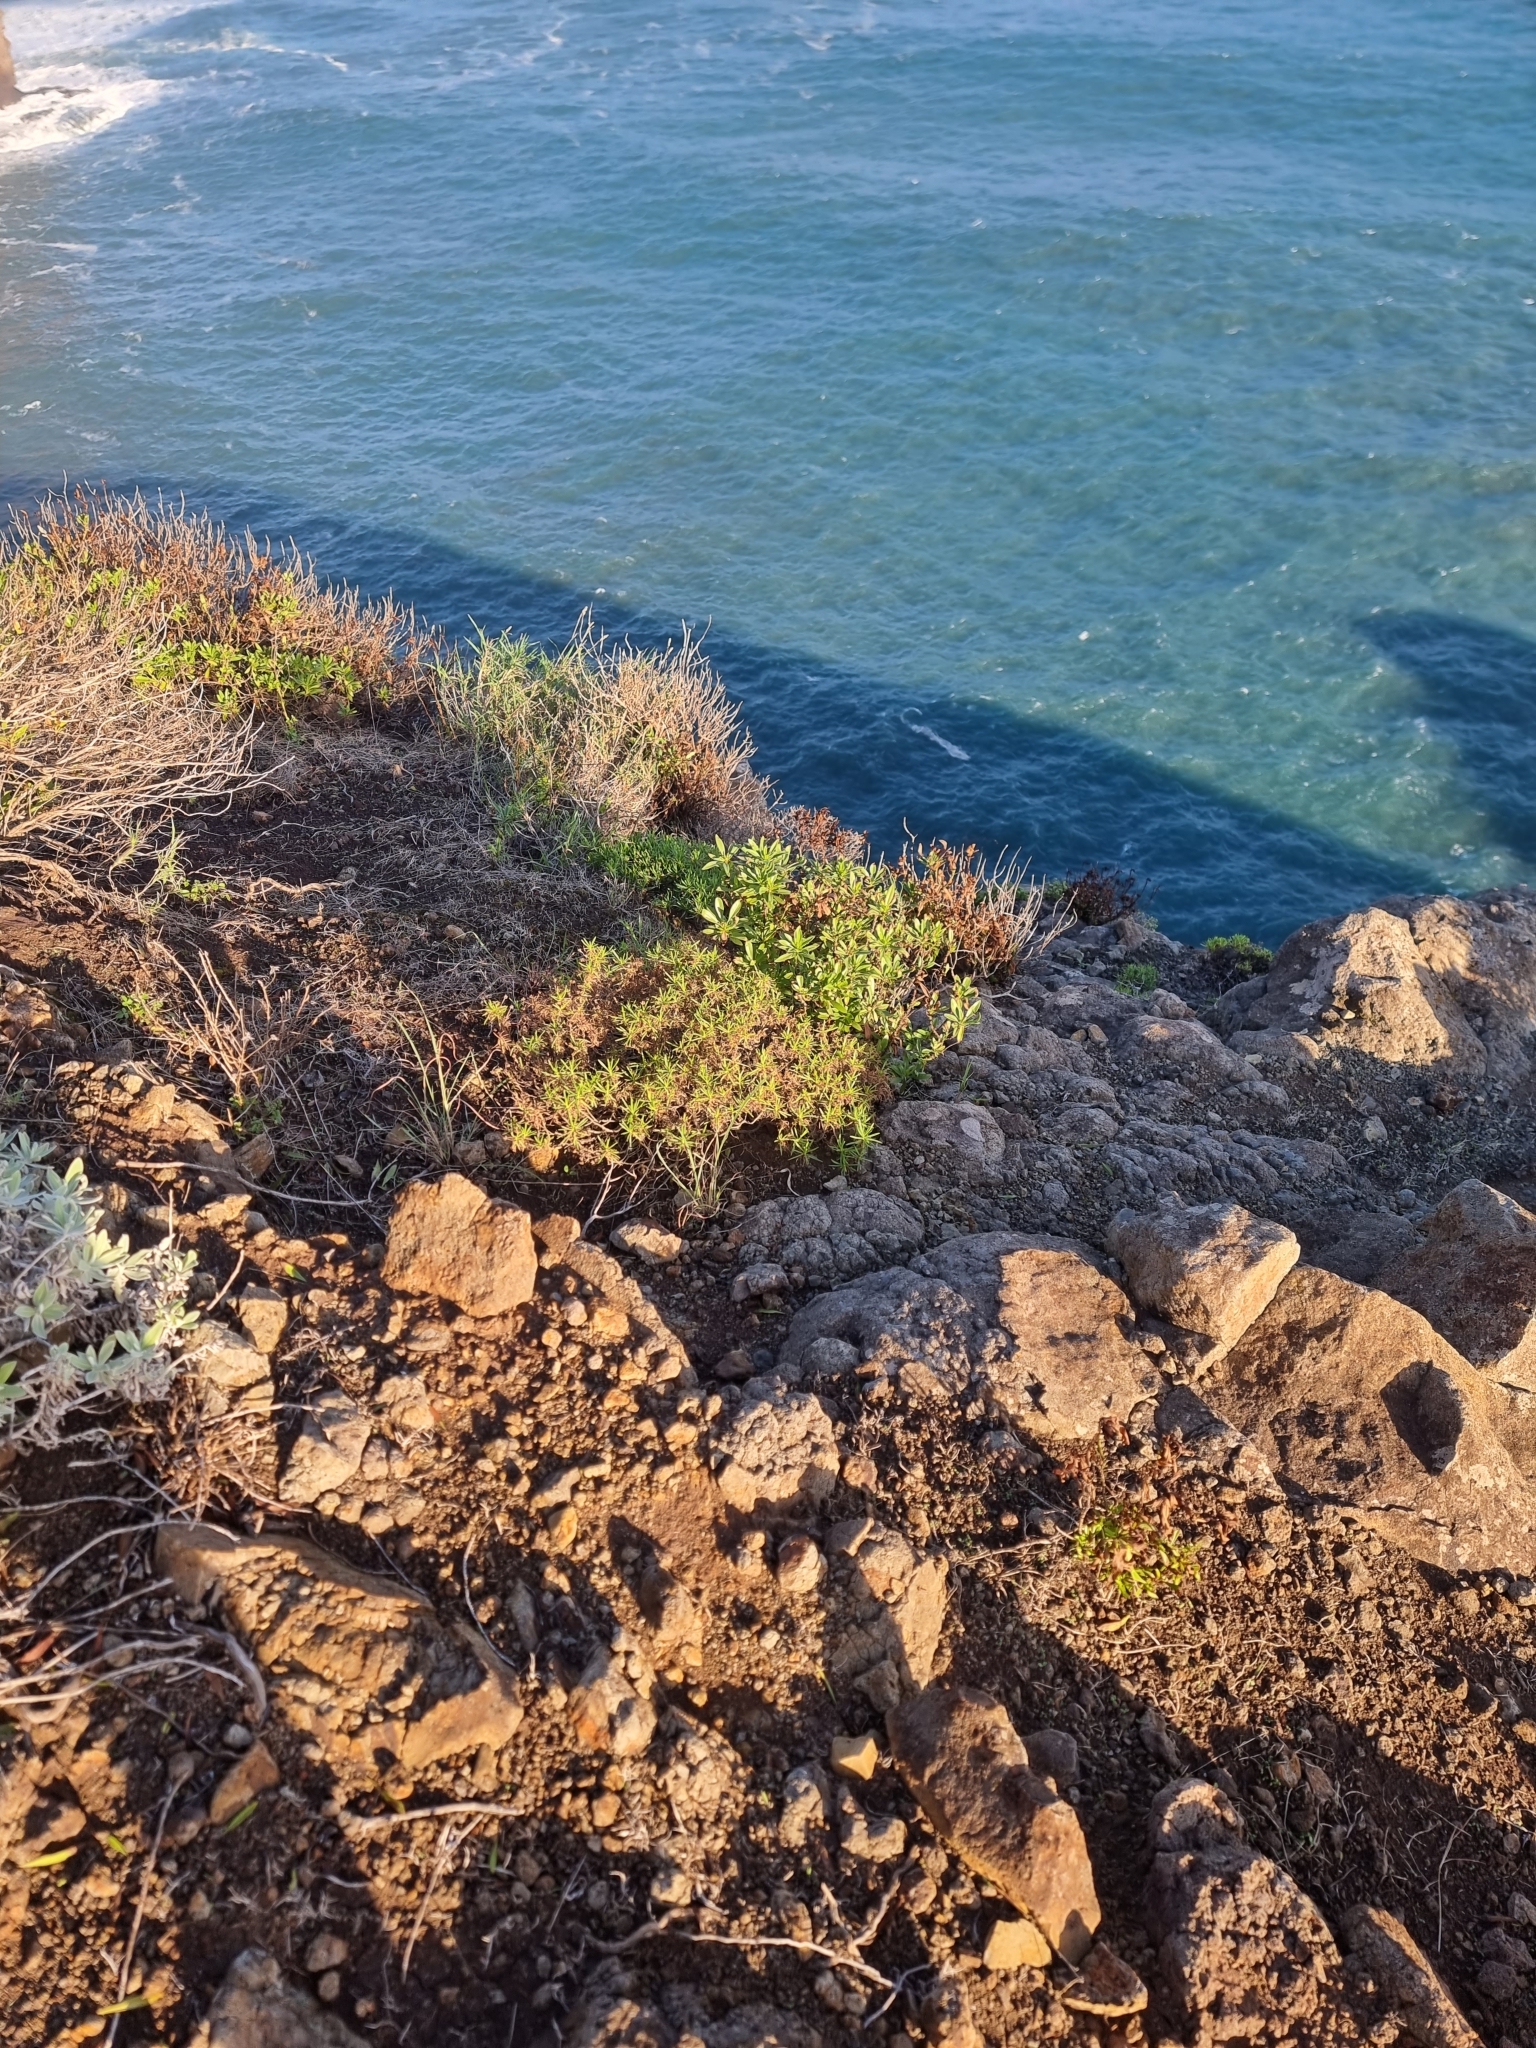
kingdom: Plantae
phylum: Tracheophyta
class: Magnoliopsida
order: Lamiales
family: Plantaginaceae
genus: Plantago
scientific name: Plantago arborescens
